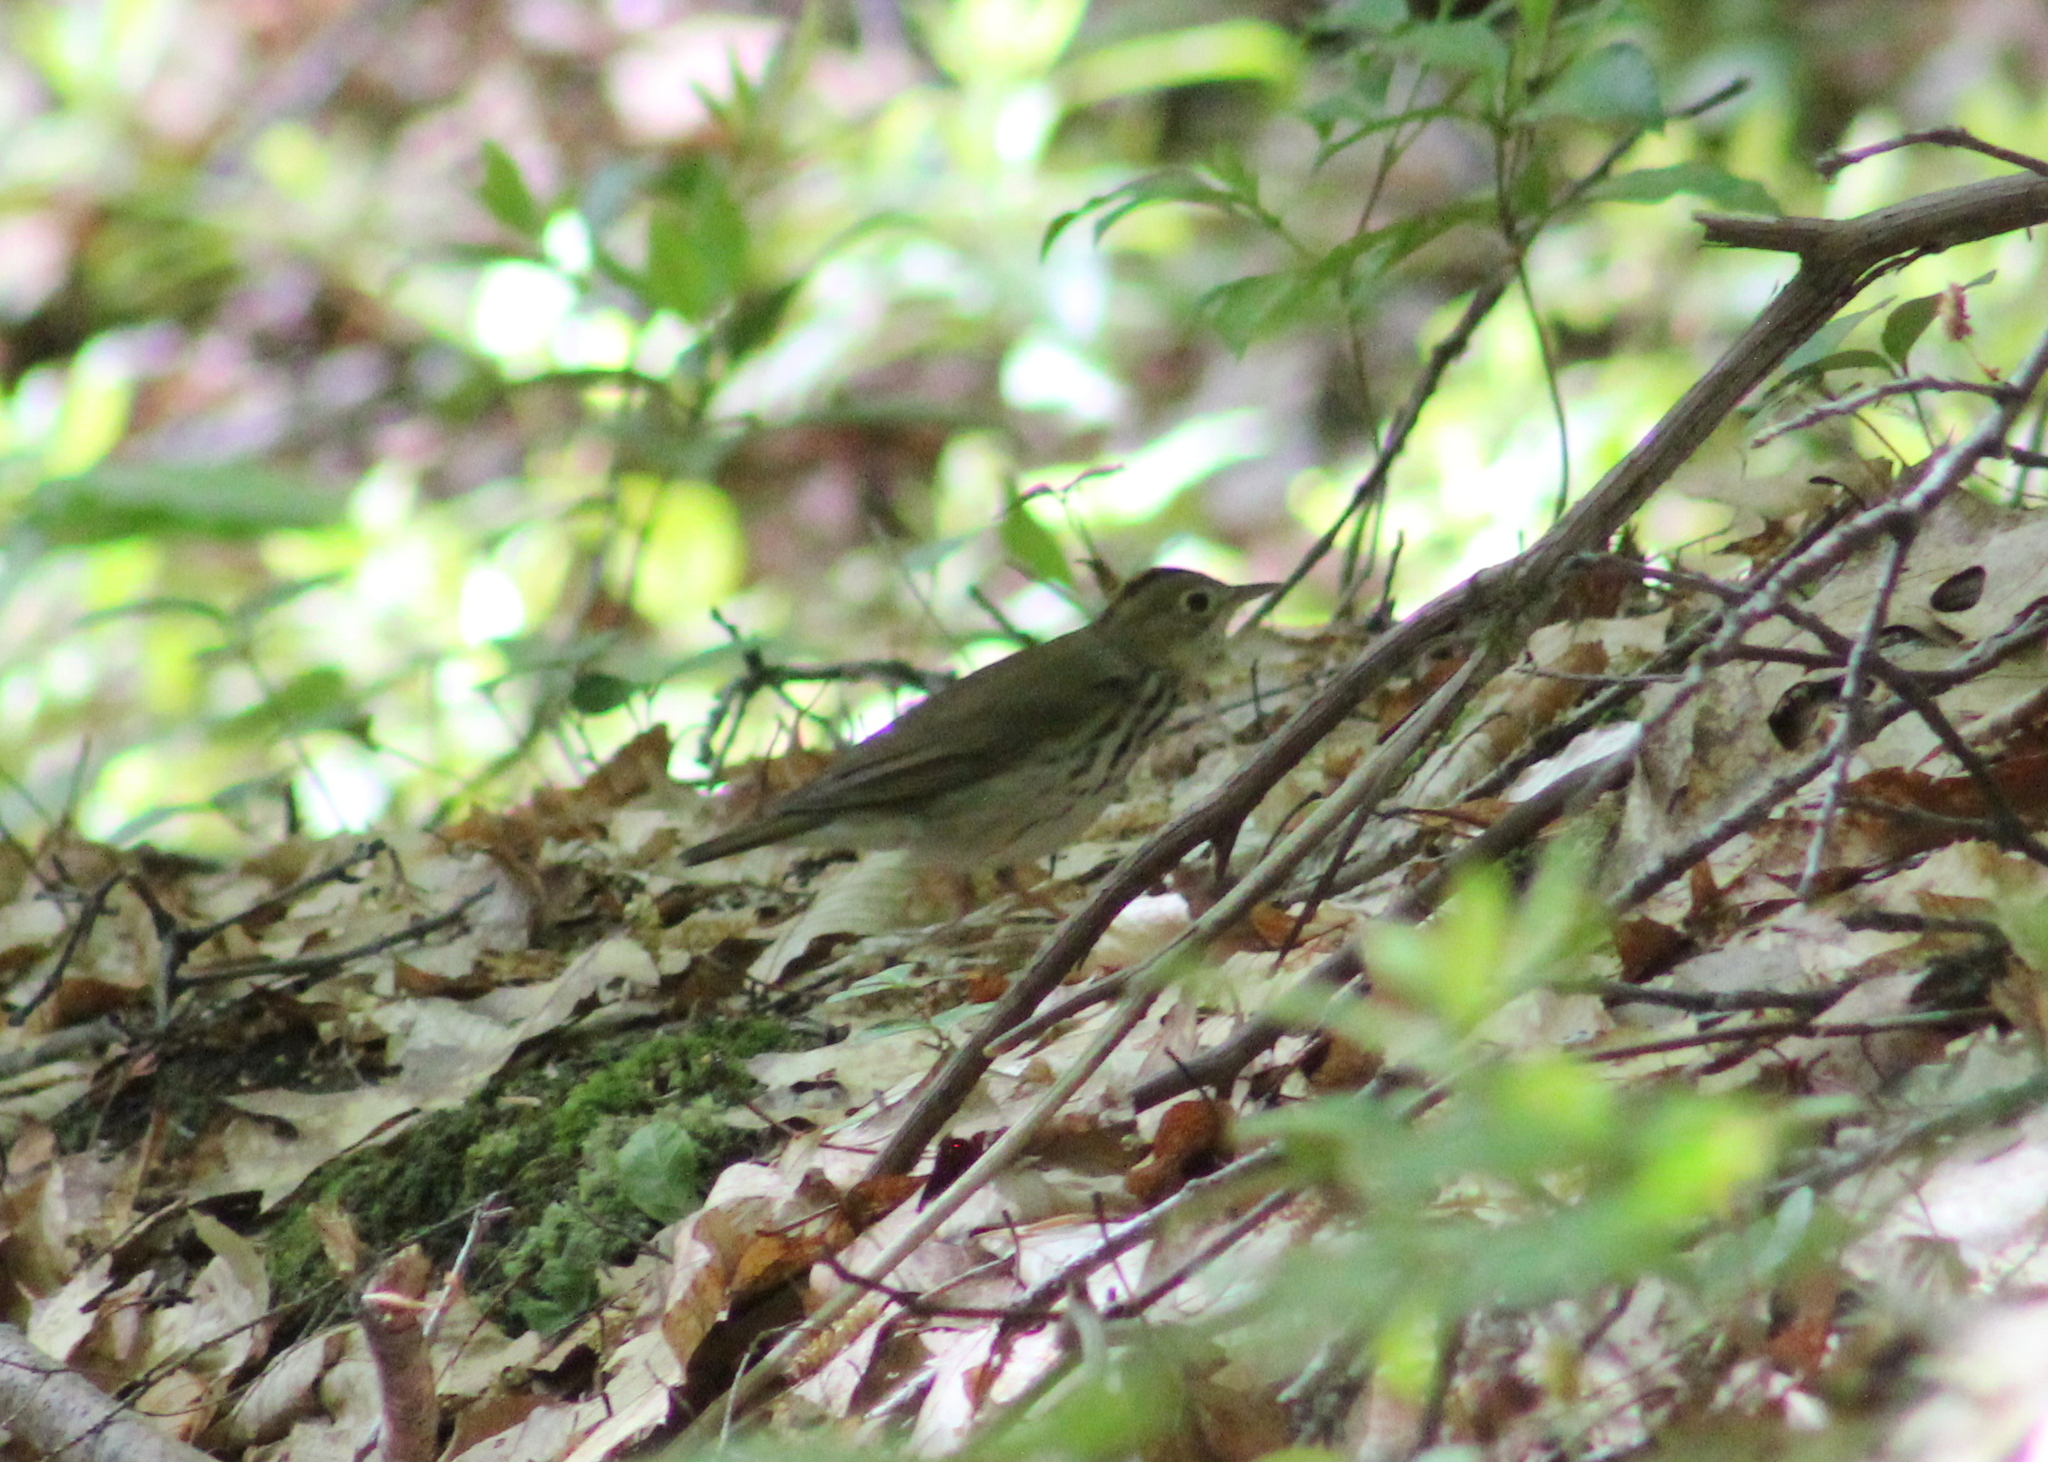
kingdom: Animalia
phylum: Chordata
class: Aves
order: Passeriformes
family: Parulidae
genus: Seiurus
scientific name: Seiurus aurocapilla
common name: Ovenbird
